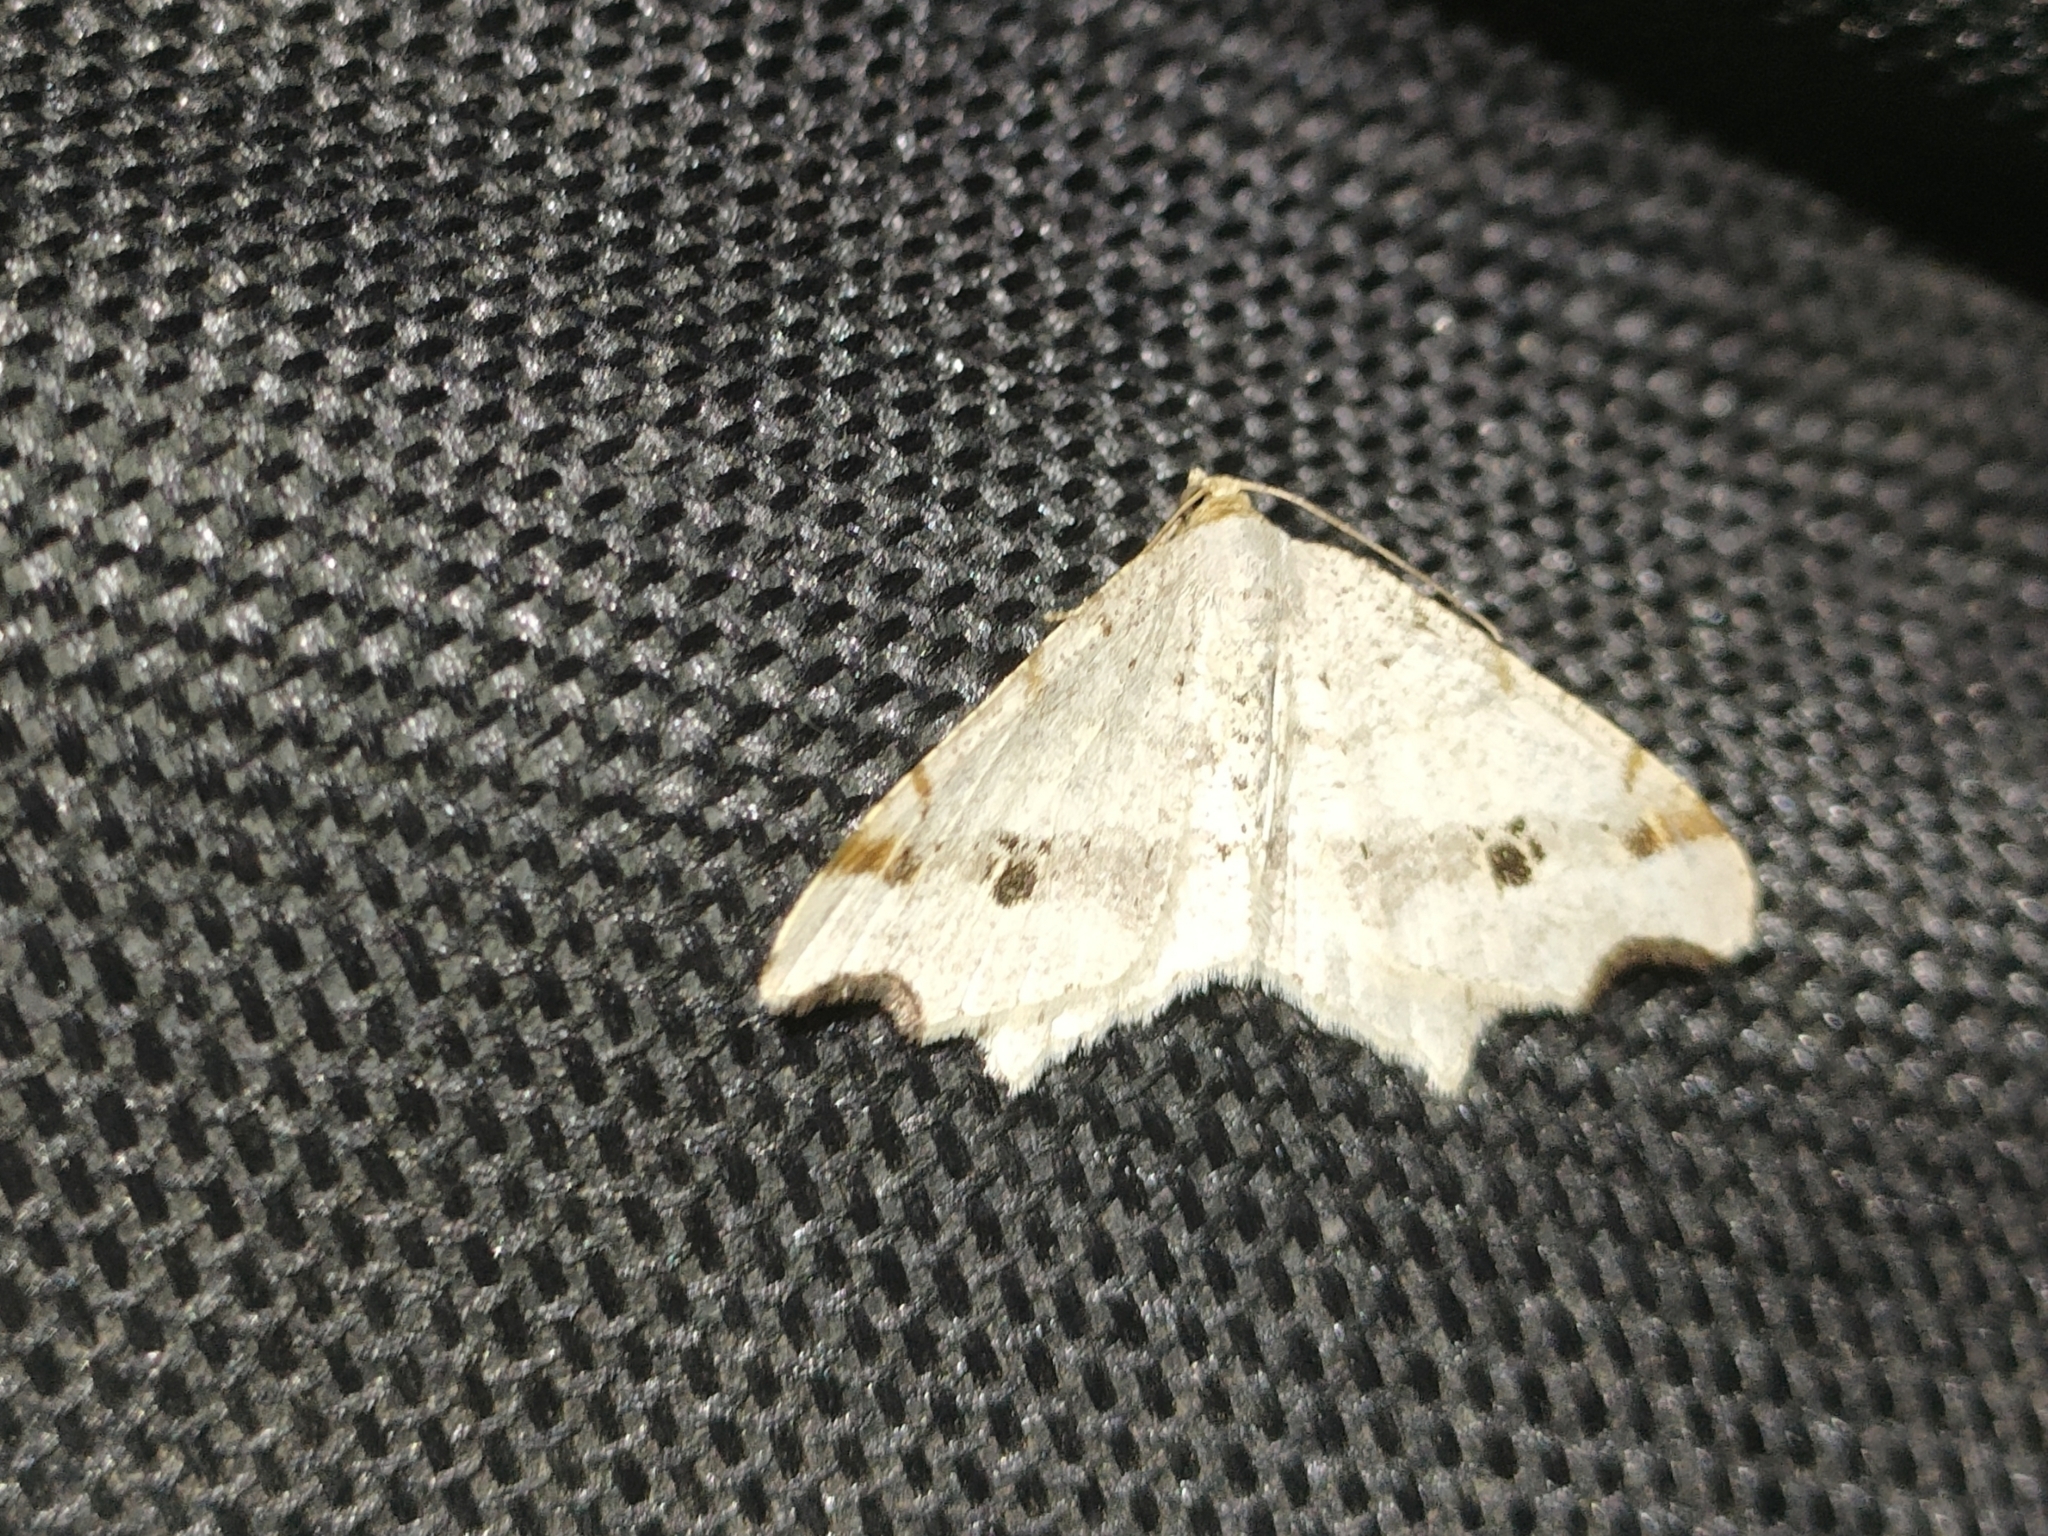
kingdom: Animalia
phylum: Arthropoda
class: Insecta
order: Lepidoptera
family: Geometridae
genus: Macaria
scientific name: Macaria alternata
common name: Sharp-angled peacock
